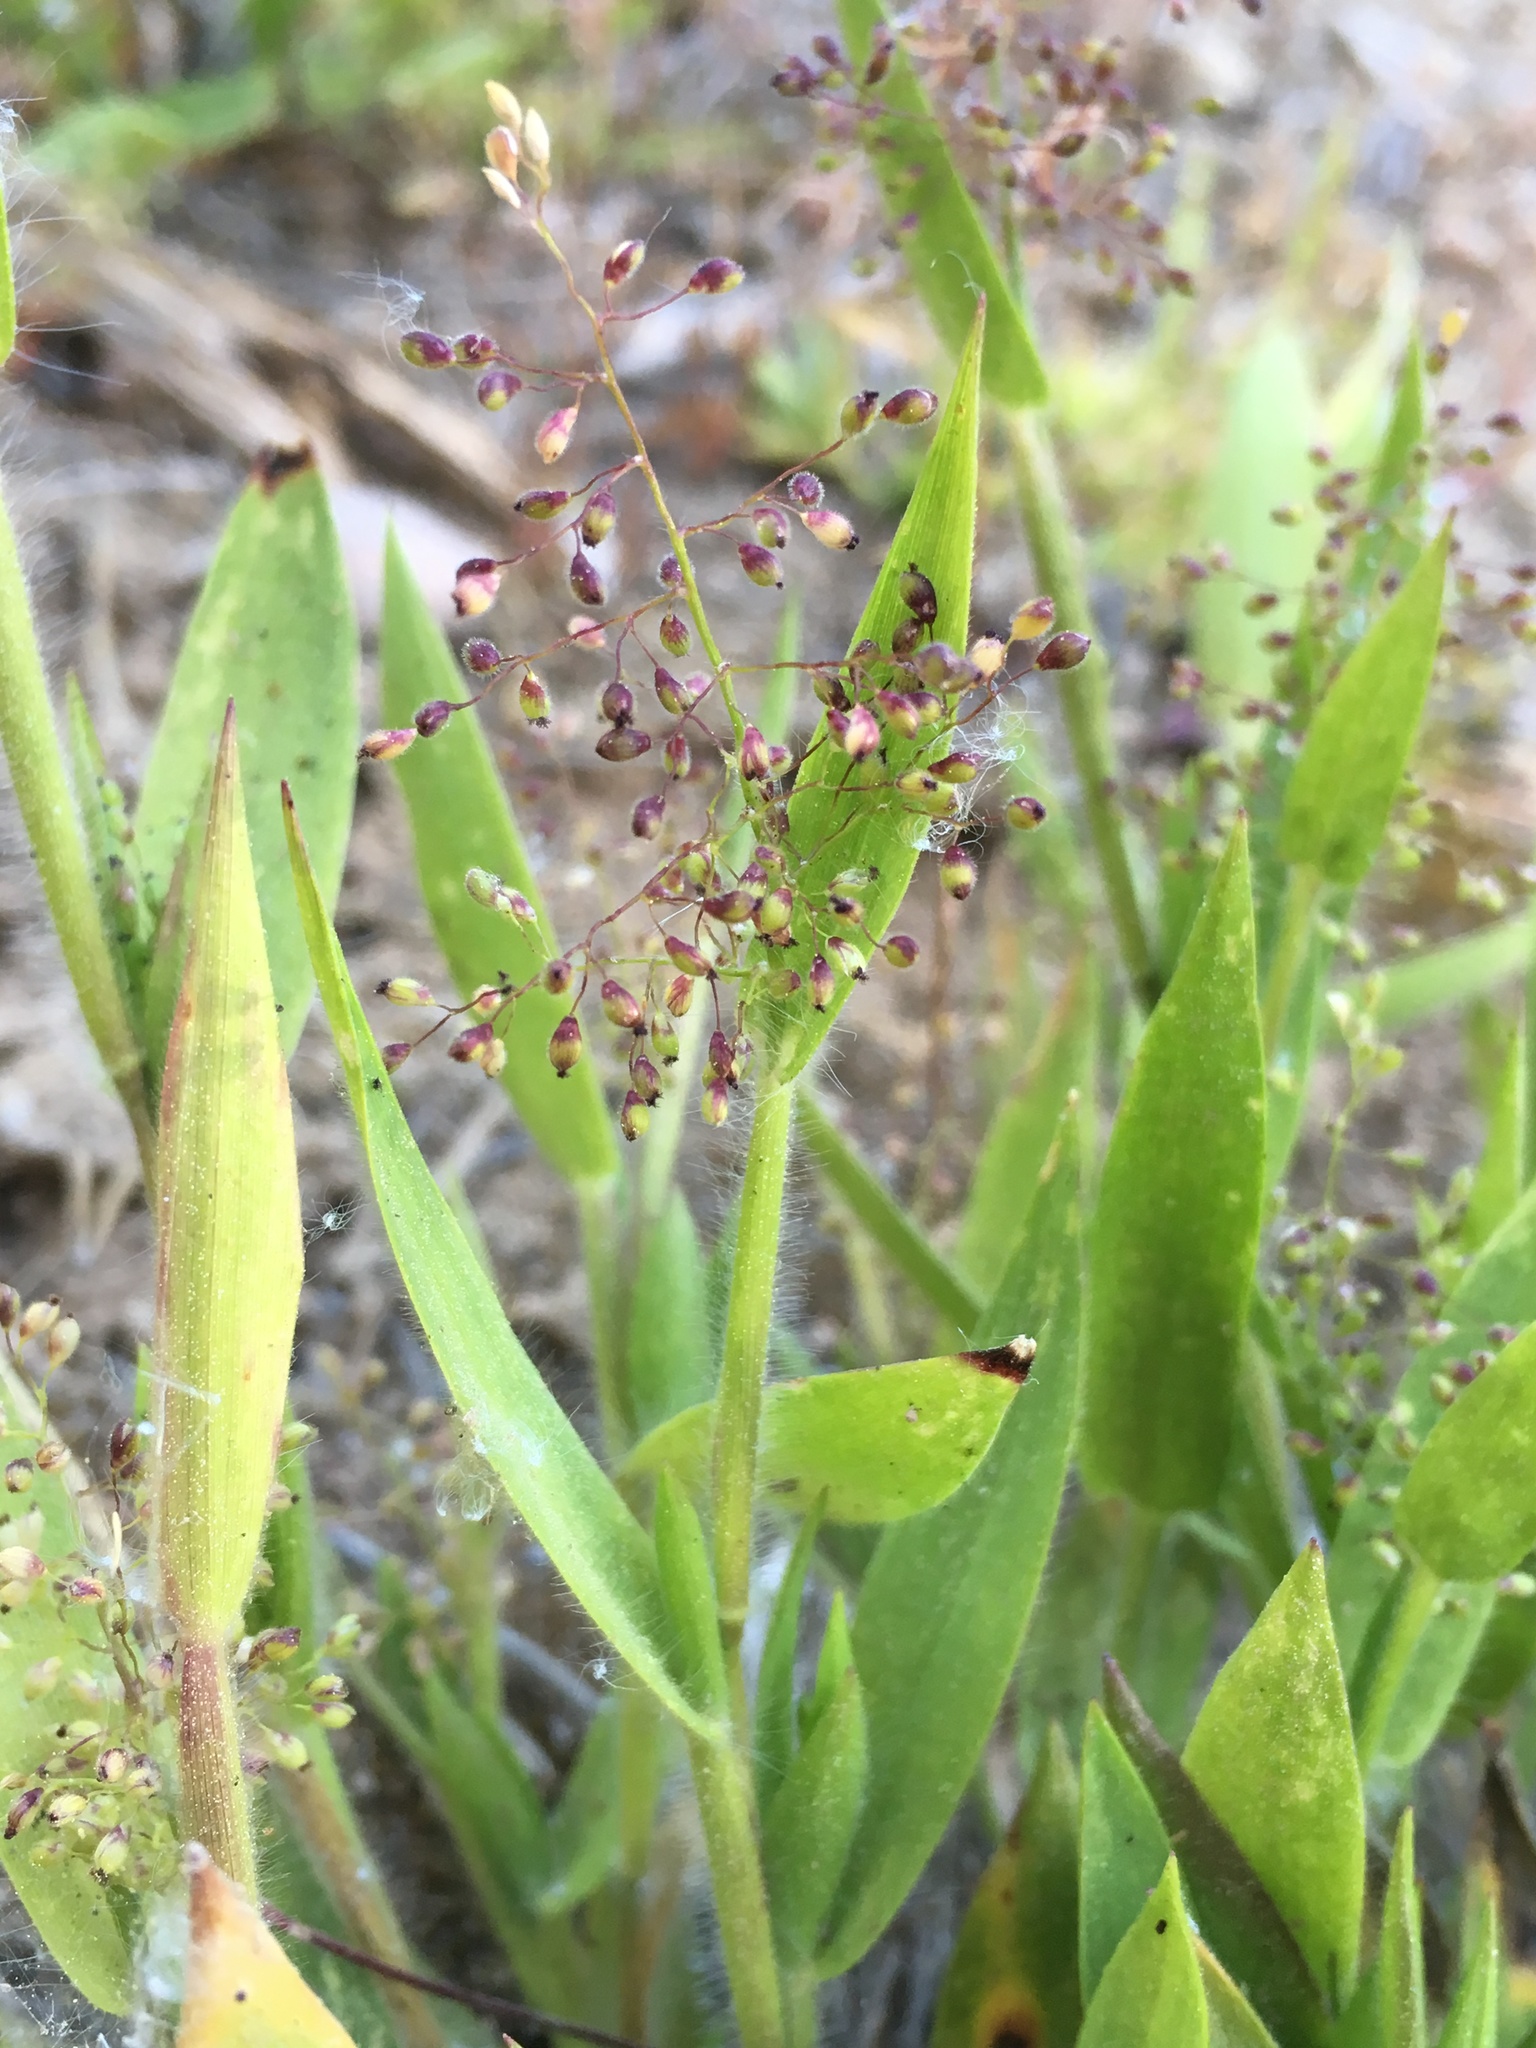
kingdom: Plantae
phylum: Tracheophyta
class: Liliopsida
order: Poales
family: Poaceae
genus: Dichanthelium
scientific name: Dichanthelium thermale
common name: Geyser panicgrass
